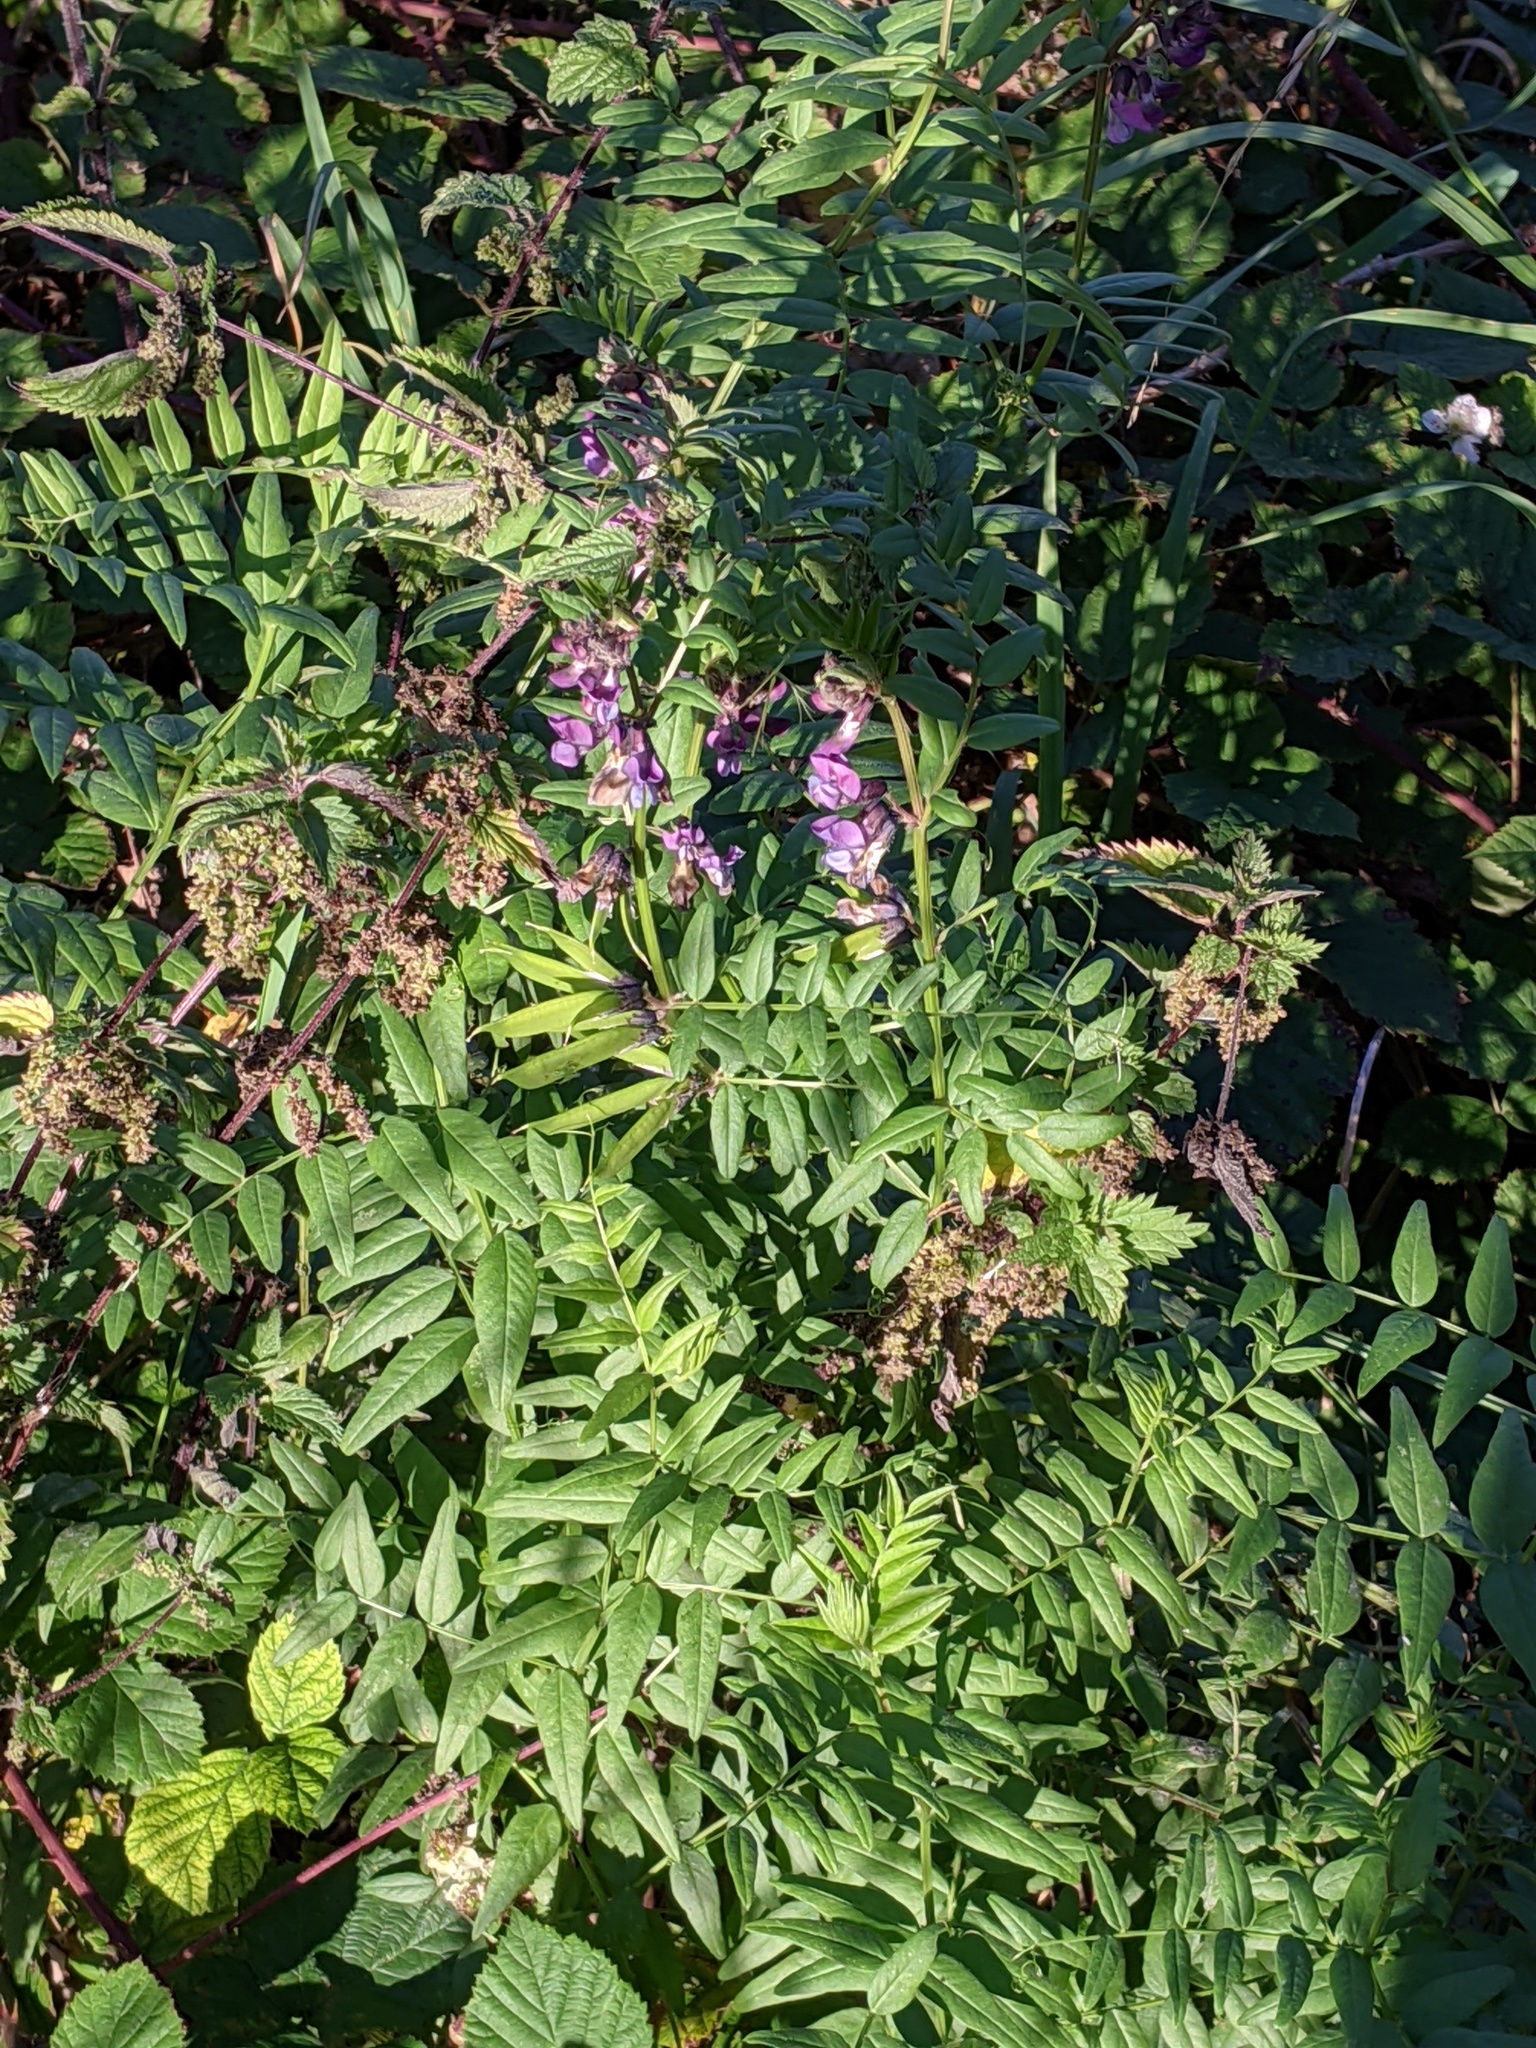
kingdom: Plantae
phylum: Tracheophyta
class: Magnoliopsida
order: Fabales
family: Fabaceae
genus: Vicia
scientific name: Vicia sepium
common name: Bush vetch
